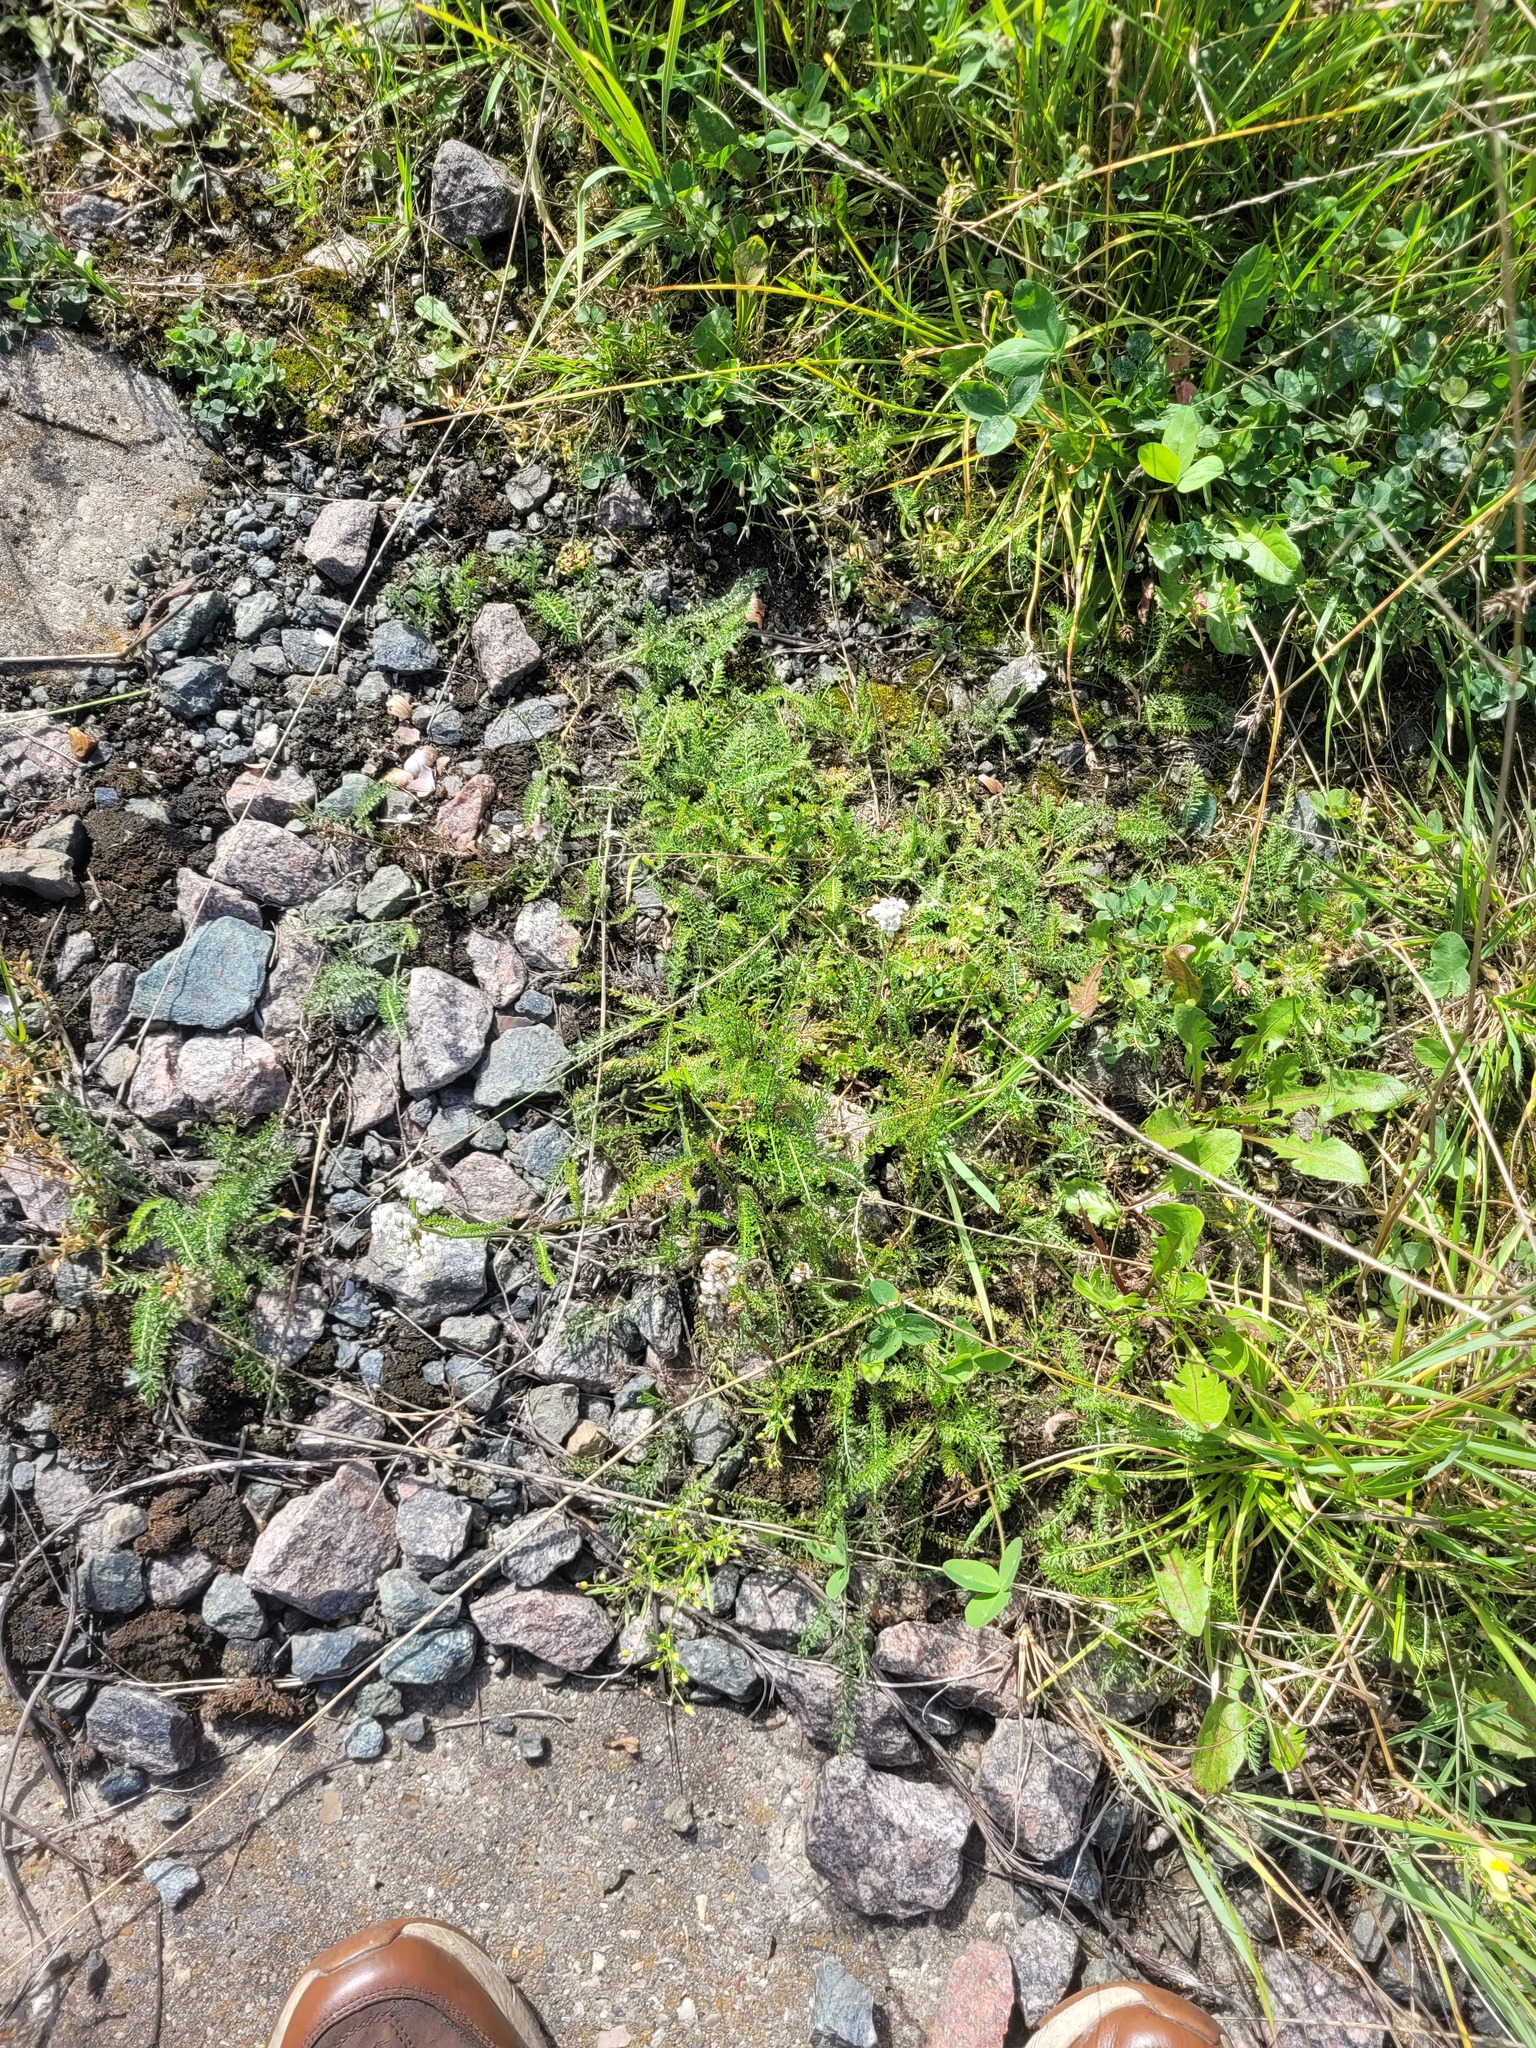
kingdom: Plantae
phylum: Tracheophyta
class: Magnoliopsida
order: Asterales
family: Asteraceae
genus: Achillea
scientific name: Achillea millefolium
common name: Yarrow
